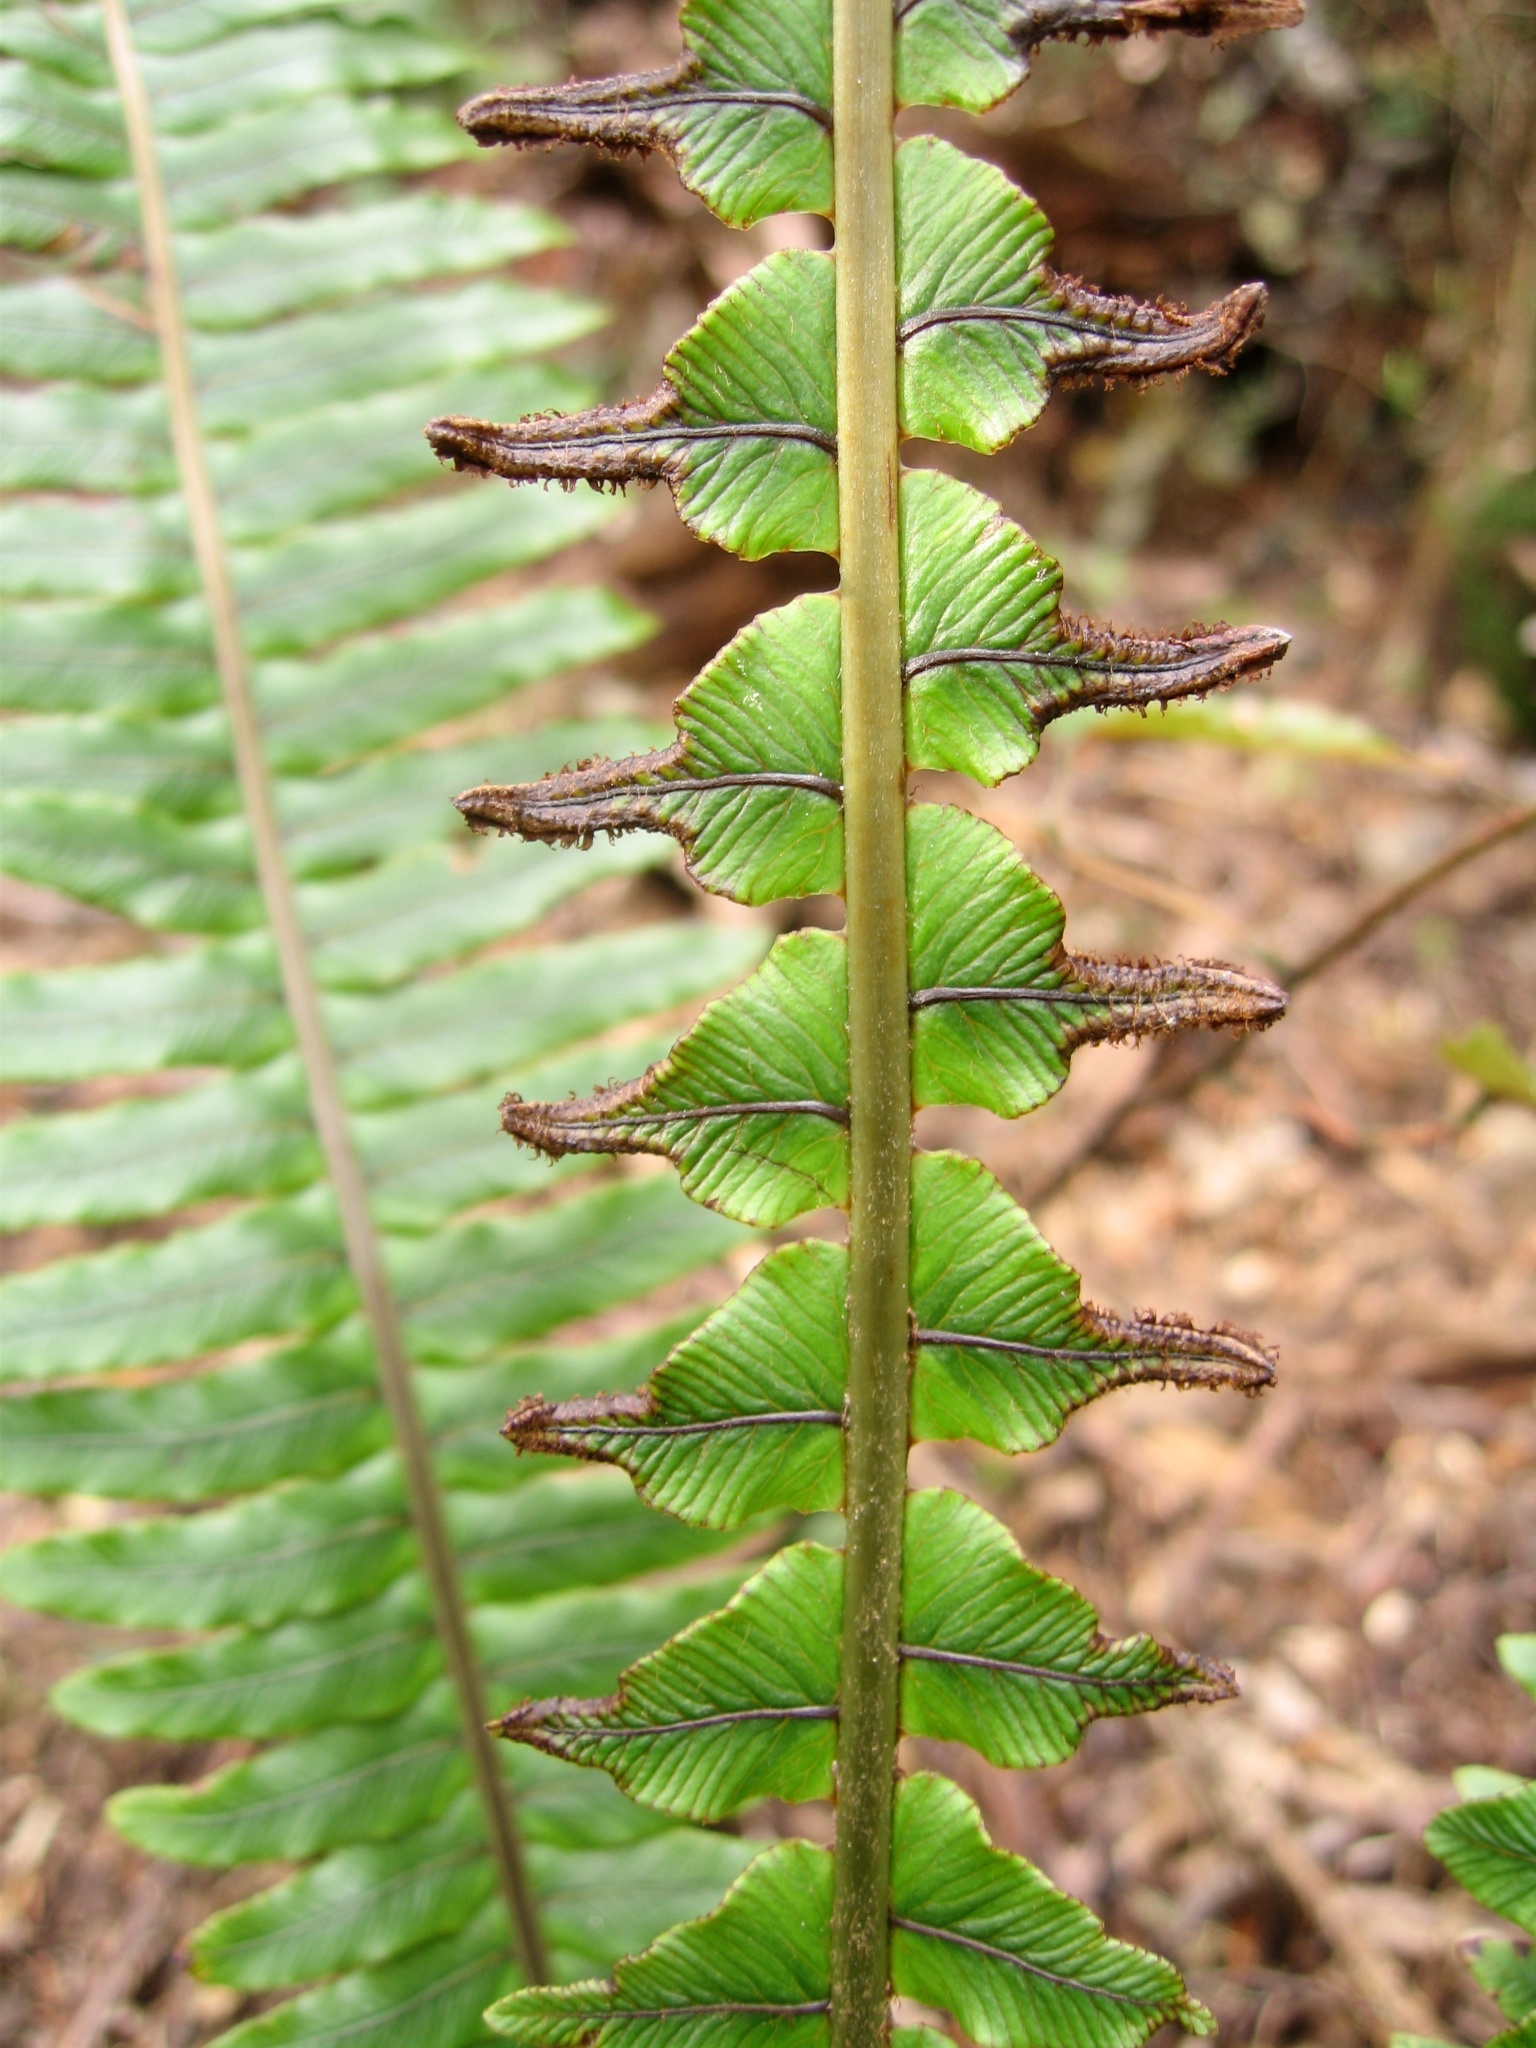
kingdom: Plantae
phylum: Tracheophyta
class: Polypodiopsida
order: Polypodiales
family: Blechnaceae
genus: Lomaria
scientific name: Lomaria discolor
